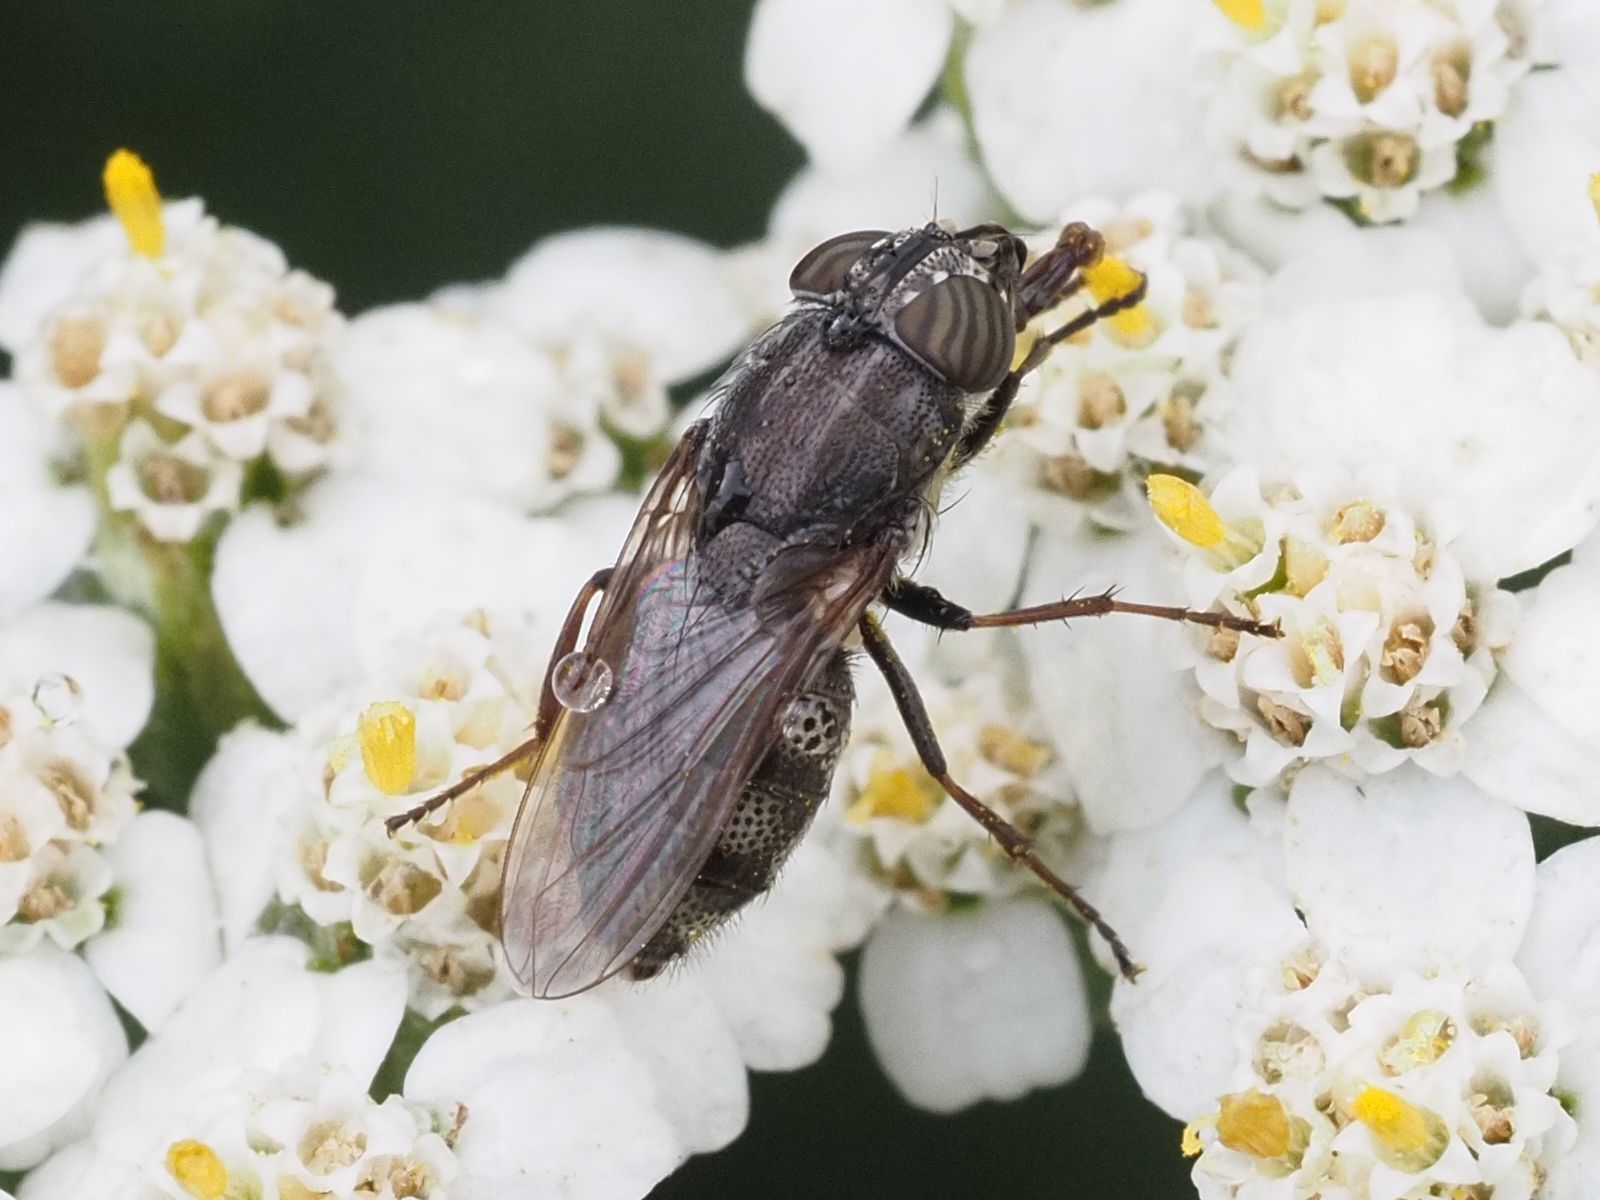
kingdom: Animalia
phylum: Arthropoda
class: Insecta
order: Diptera
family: Calliphoridae
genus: Stomorhina
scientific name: Stomorhina lunata
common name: Locust blowfly
